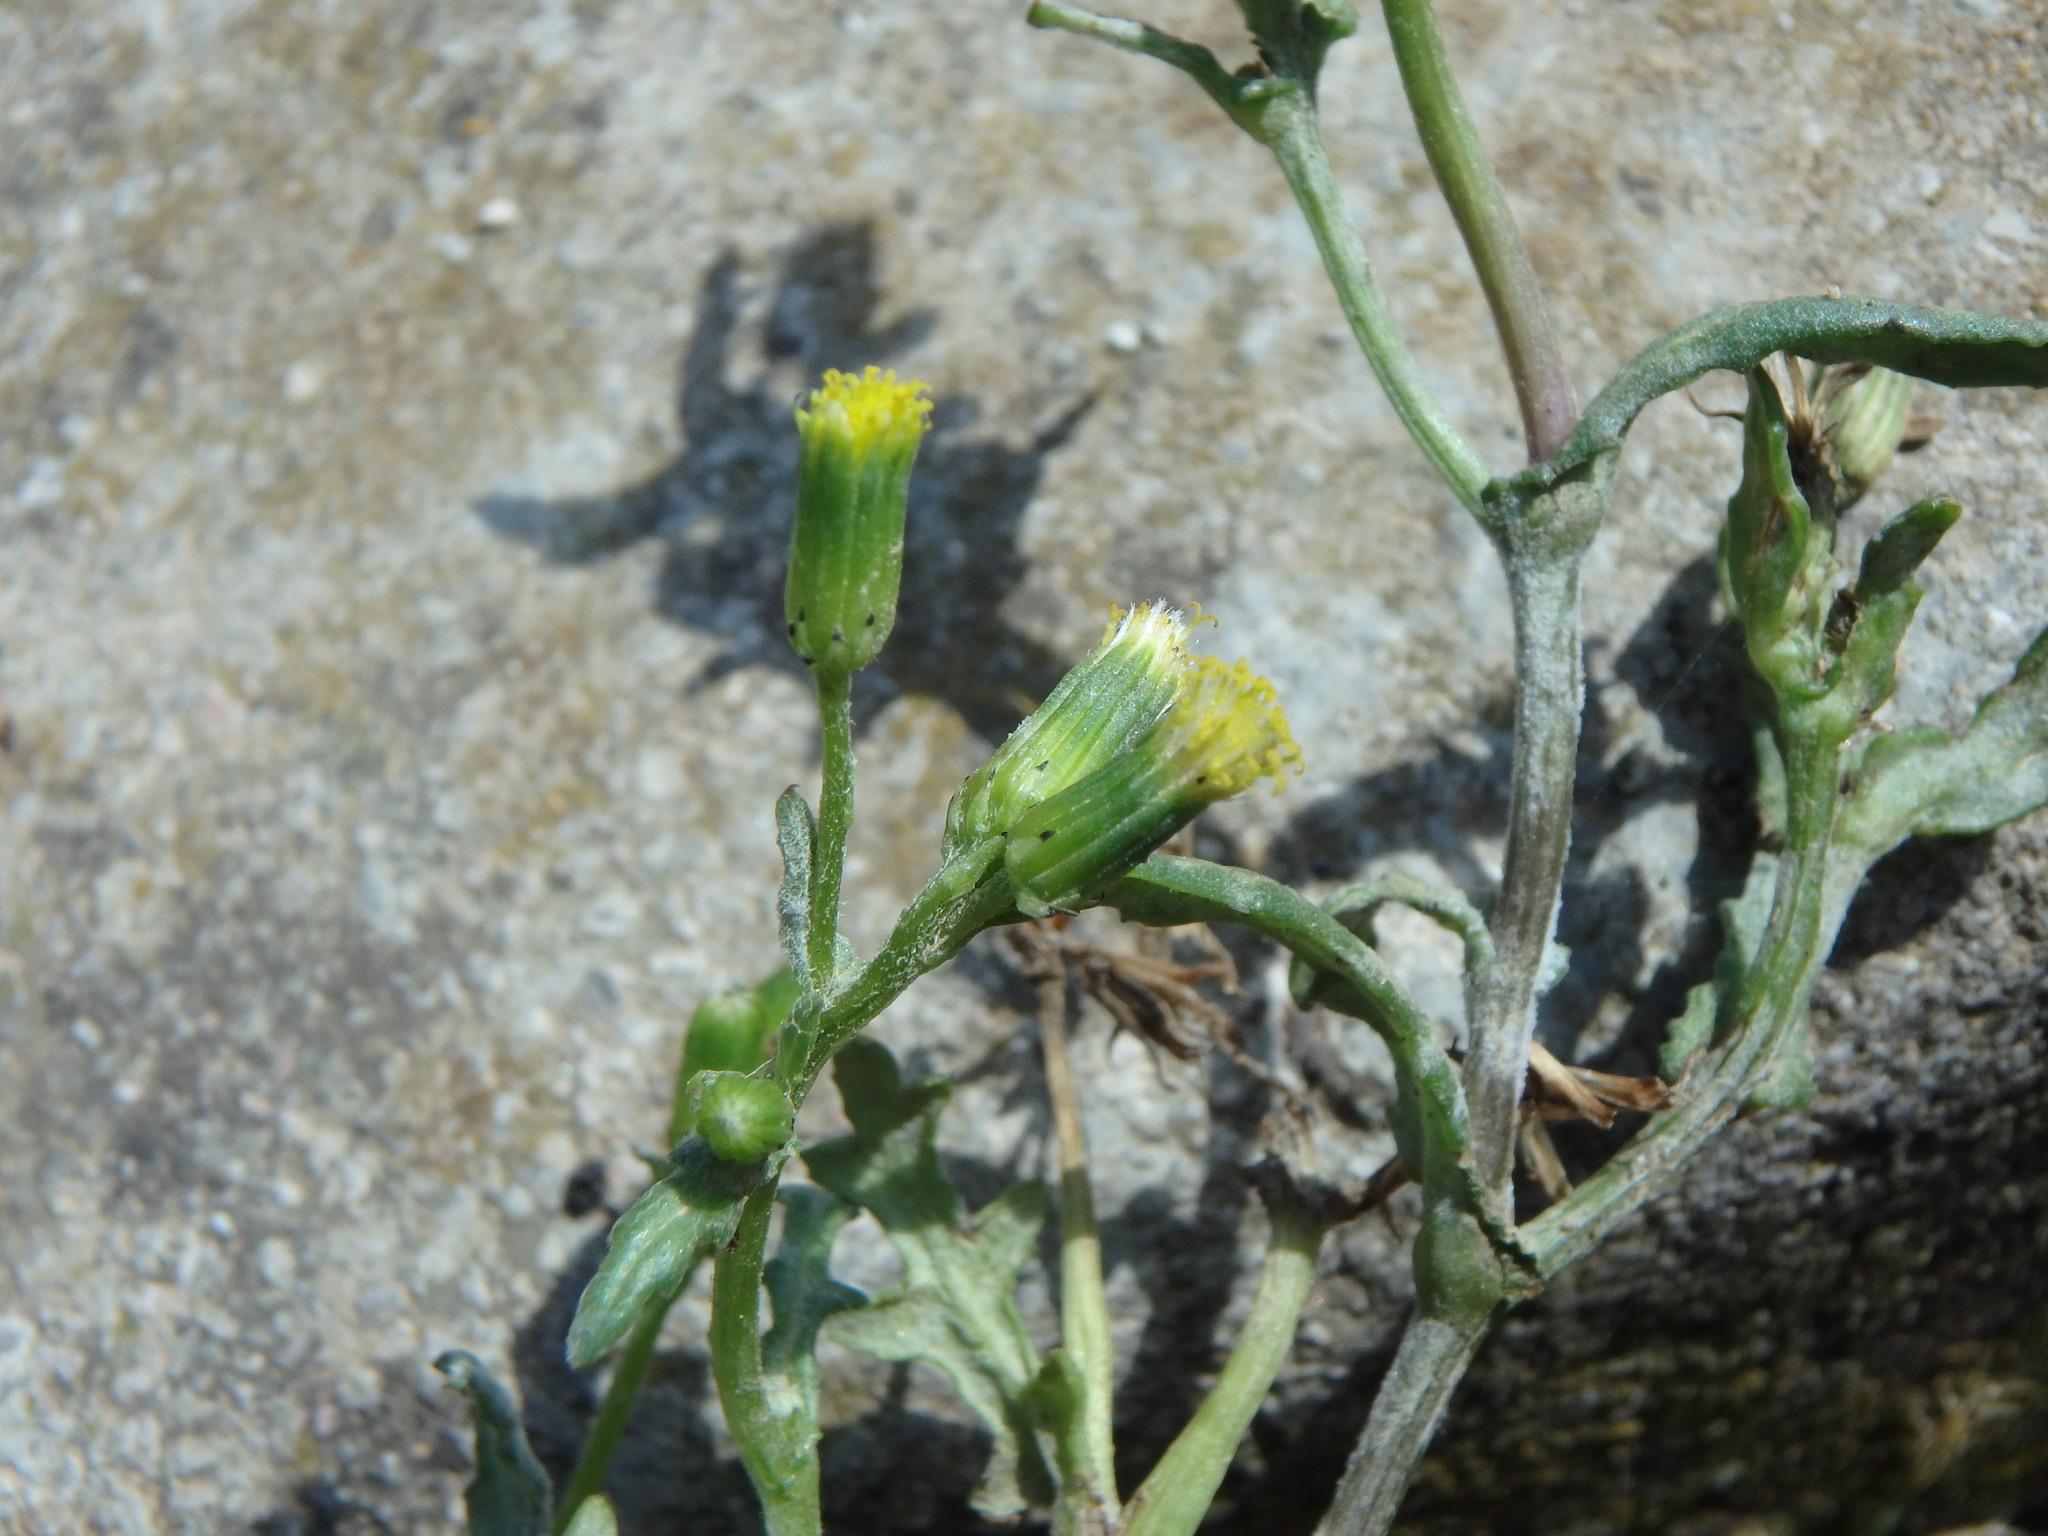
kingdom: Plantae
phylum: Tracheophyta
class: Magnoliopsida
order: Asterales
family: Asteraceae
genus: Senecio
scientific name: Senecio vulgaris
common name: Old-man-in-the-spring
